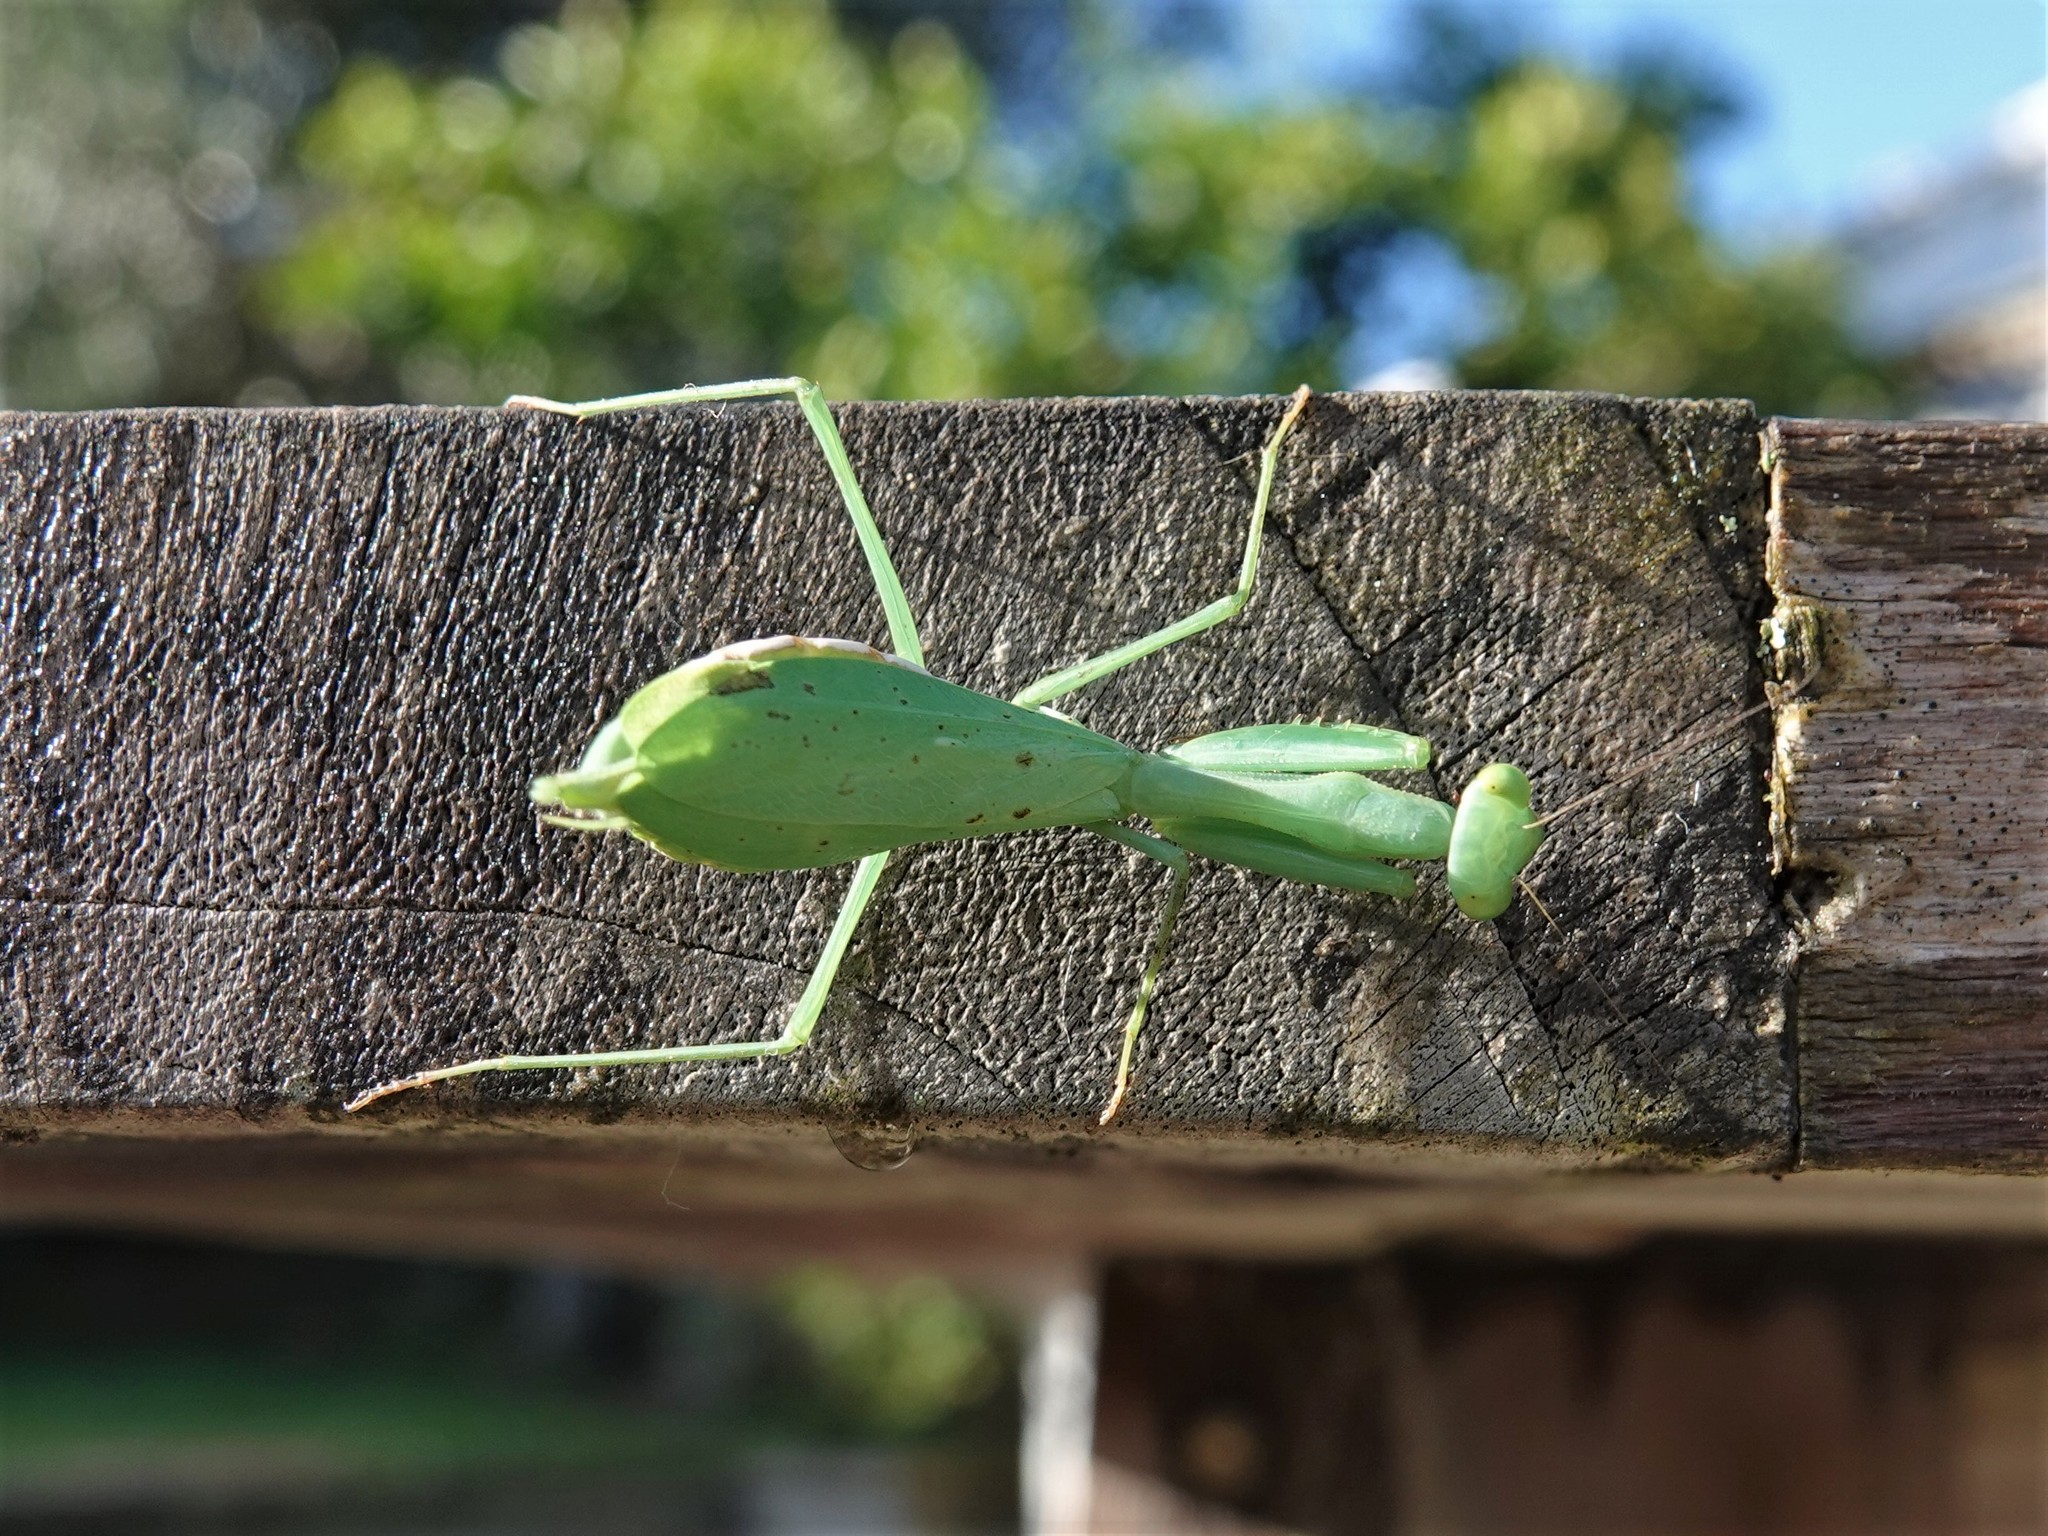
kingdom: Animalia
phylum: Arthropoda
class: Insecta
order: Mantodea
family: Miomantidae
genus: Miomantis
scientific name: Miomantis caffra
